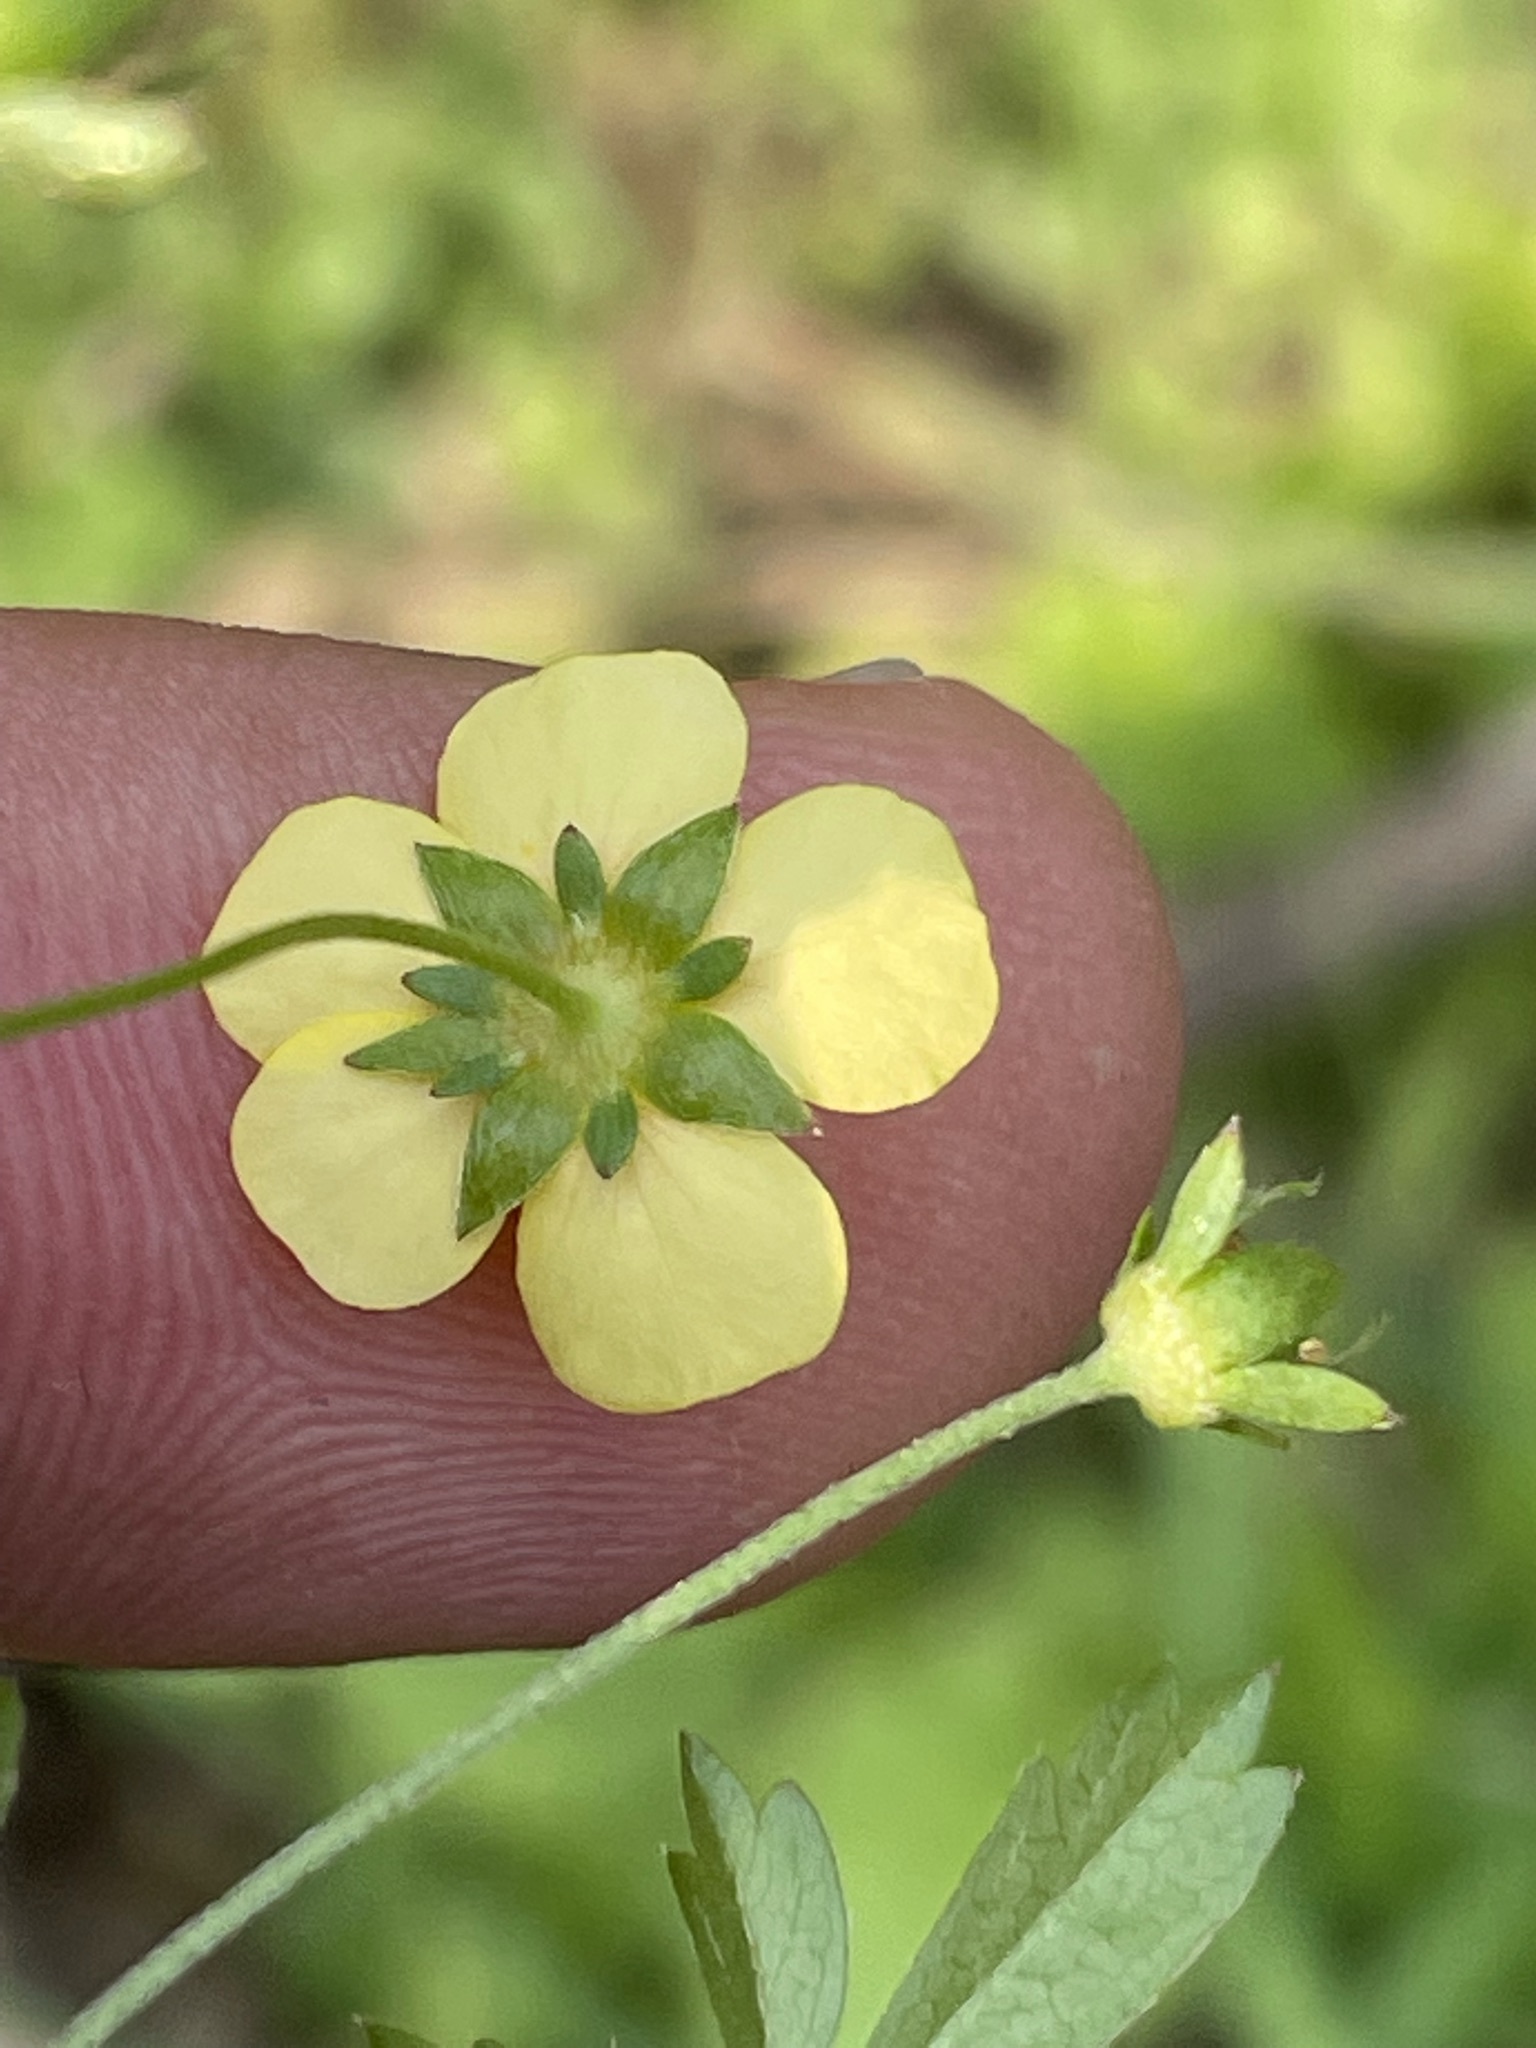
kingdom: Plantae
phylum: Tracheophyta
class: Magnoliopsida
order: Rosales
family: Rosaceae
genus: Potentilla
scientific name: Potentilla erecta
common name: Tormentil
